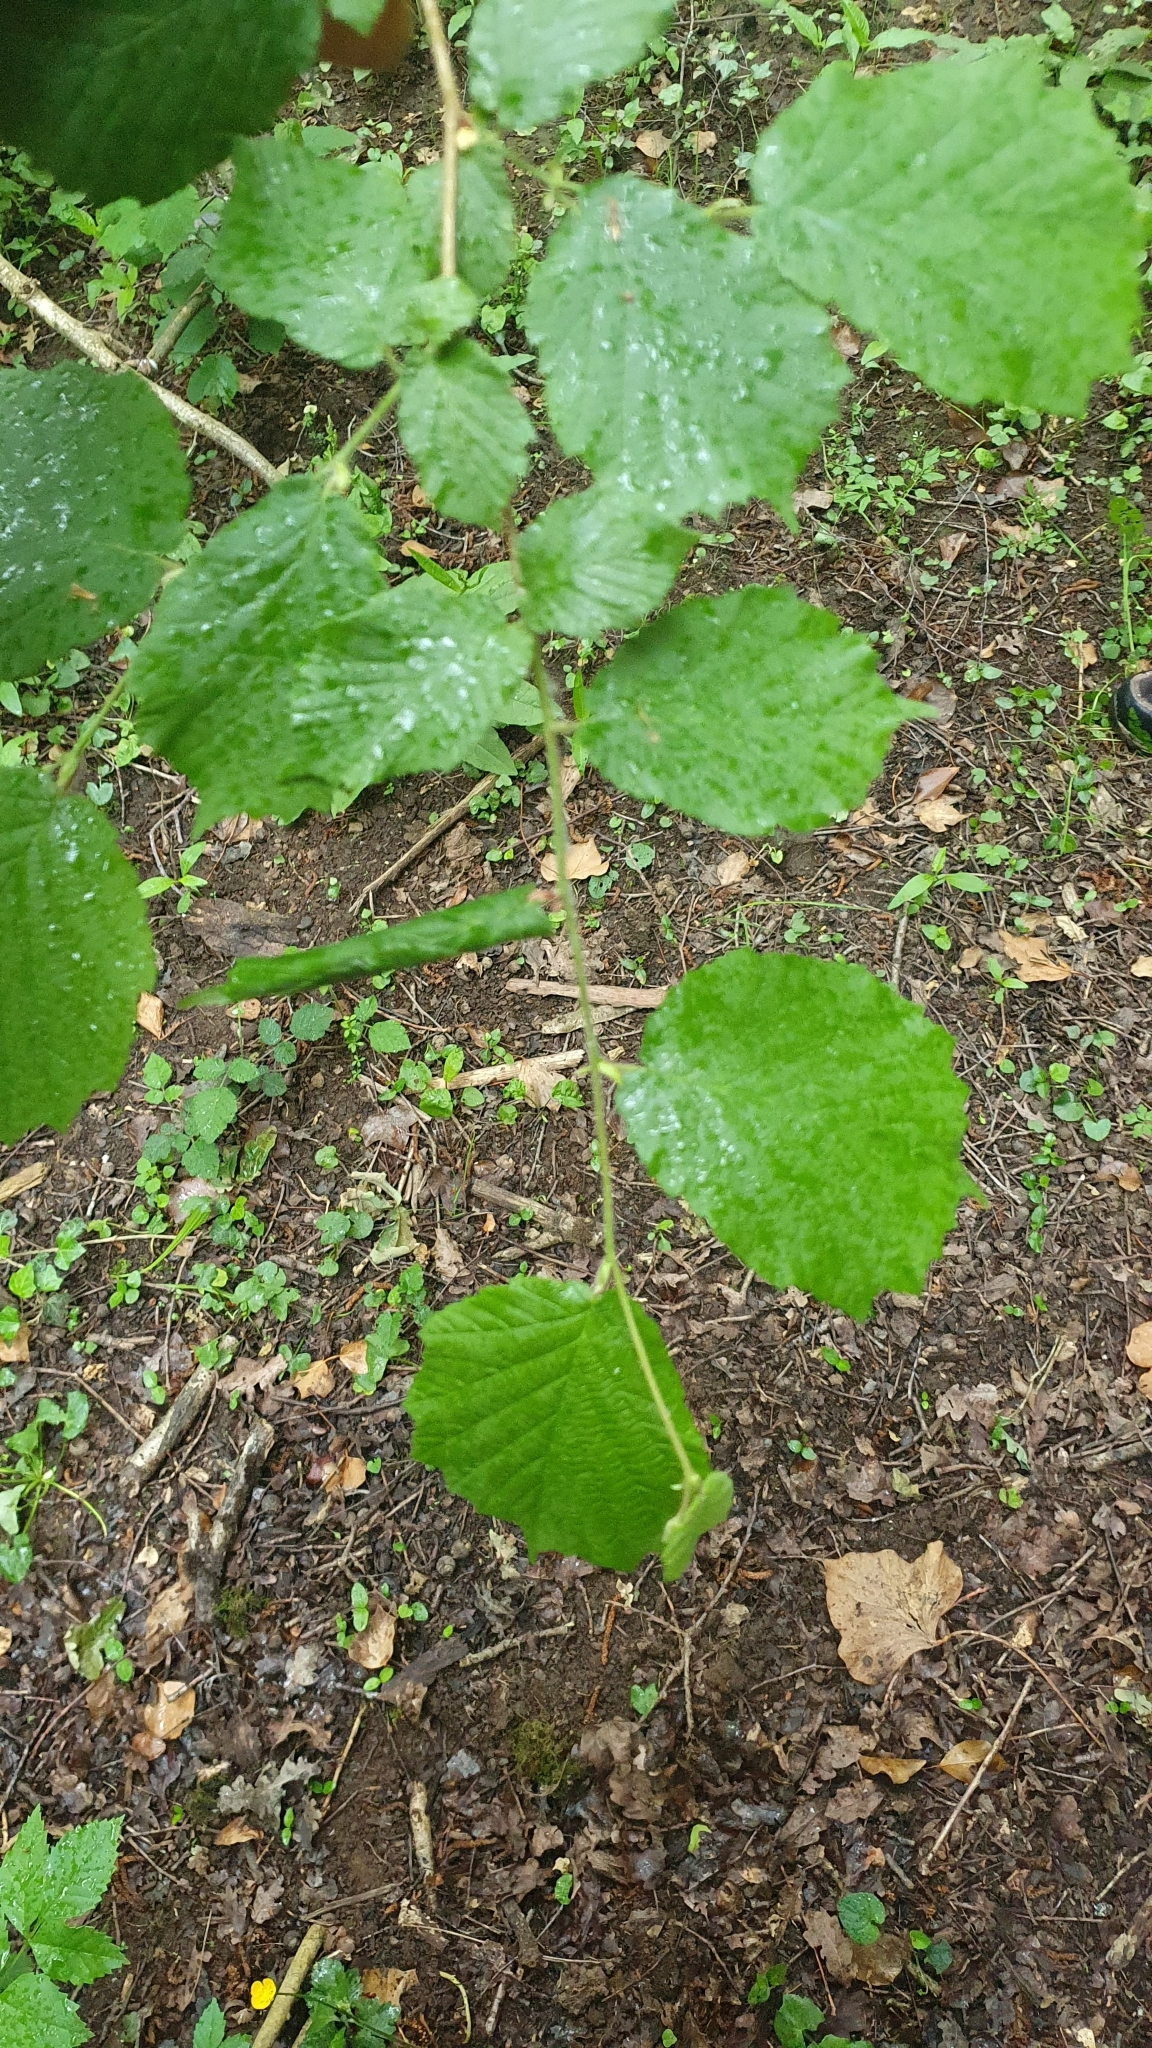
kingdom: Plantae
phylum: Tracheophyta
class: Magnoliopsida
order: Fagales
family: Betulaceae
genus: Corylus
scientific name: Corylus avellana
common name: European hazel
